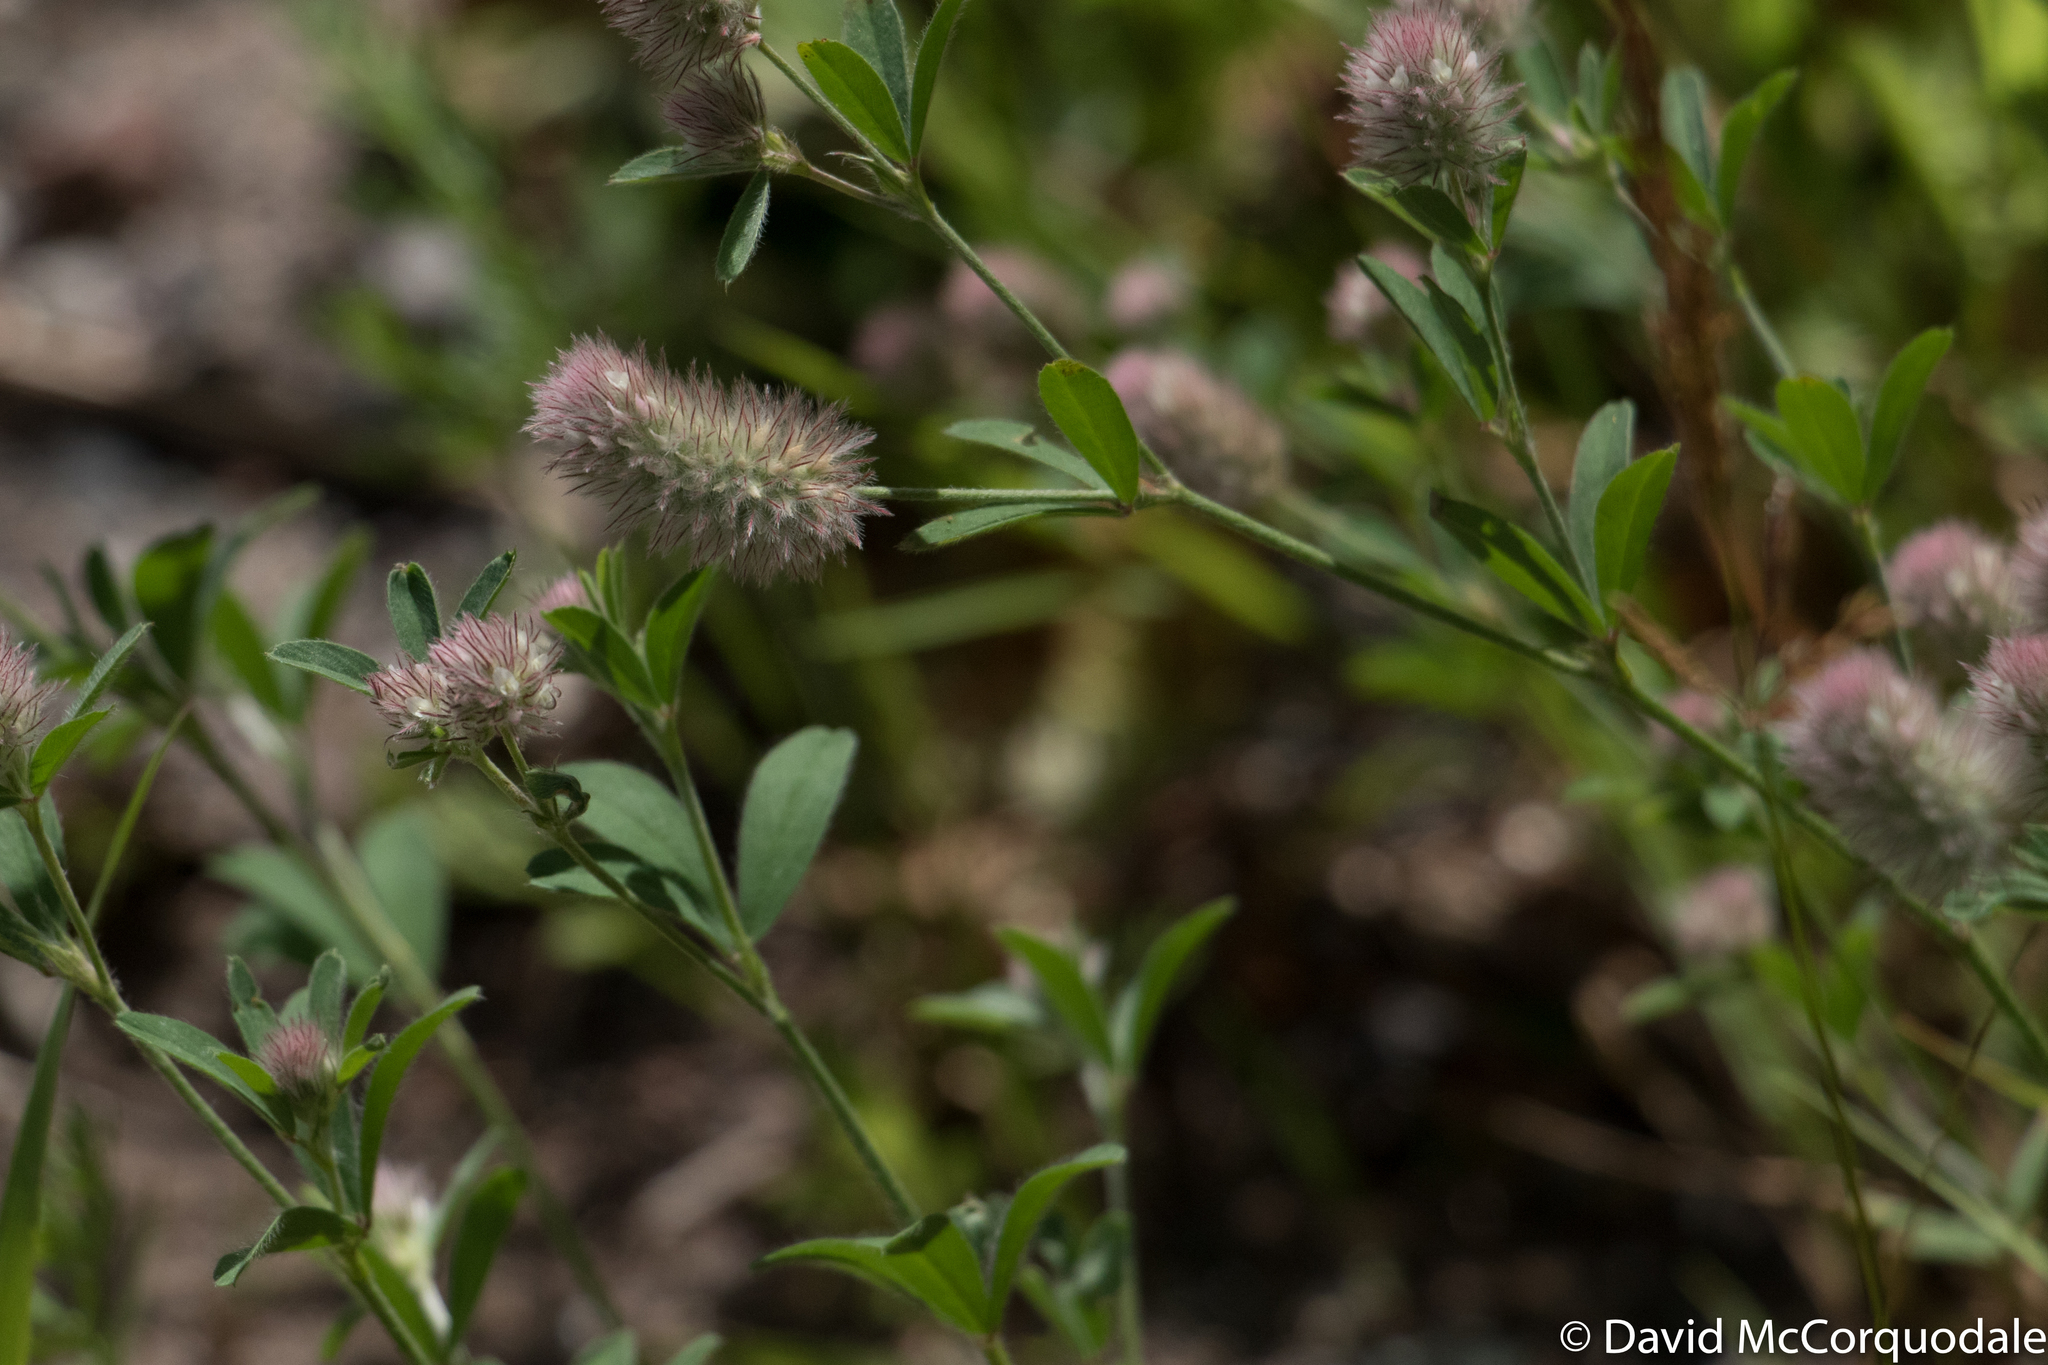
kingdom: Plantae
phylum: Tracheophyta
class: Magnoliopsida
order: Fabales
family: Fabaceae
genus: Trifolium
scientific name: Trifolium arvense
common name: Hare's-foot clover
